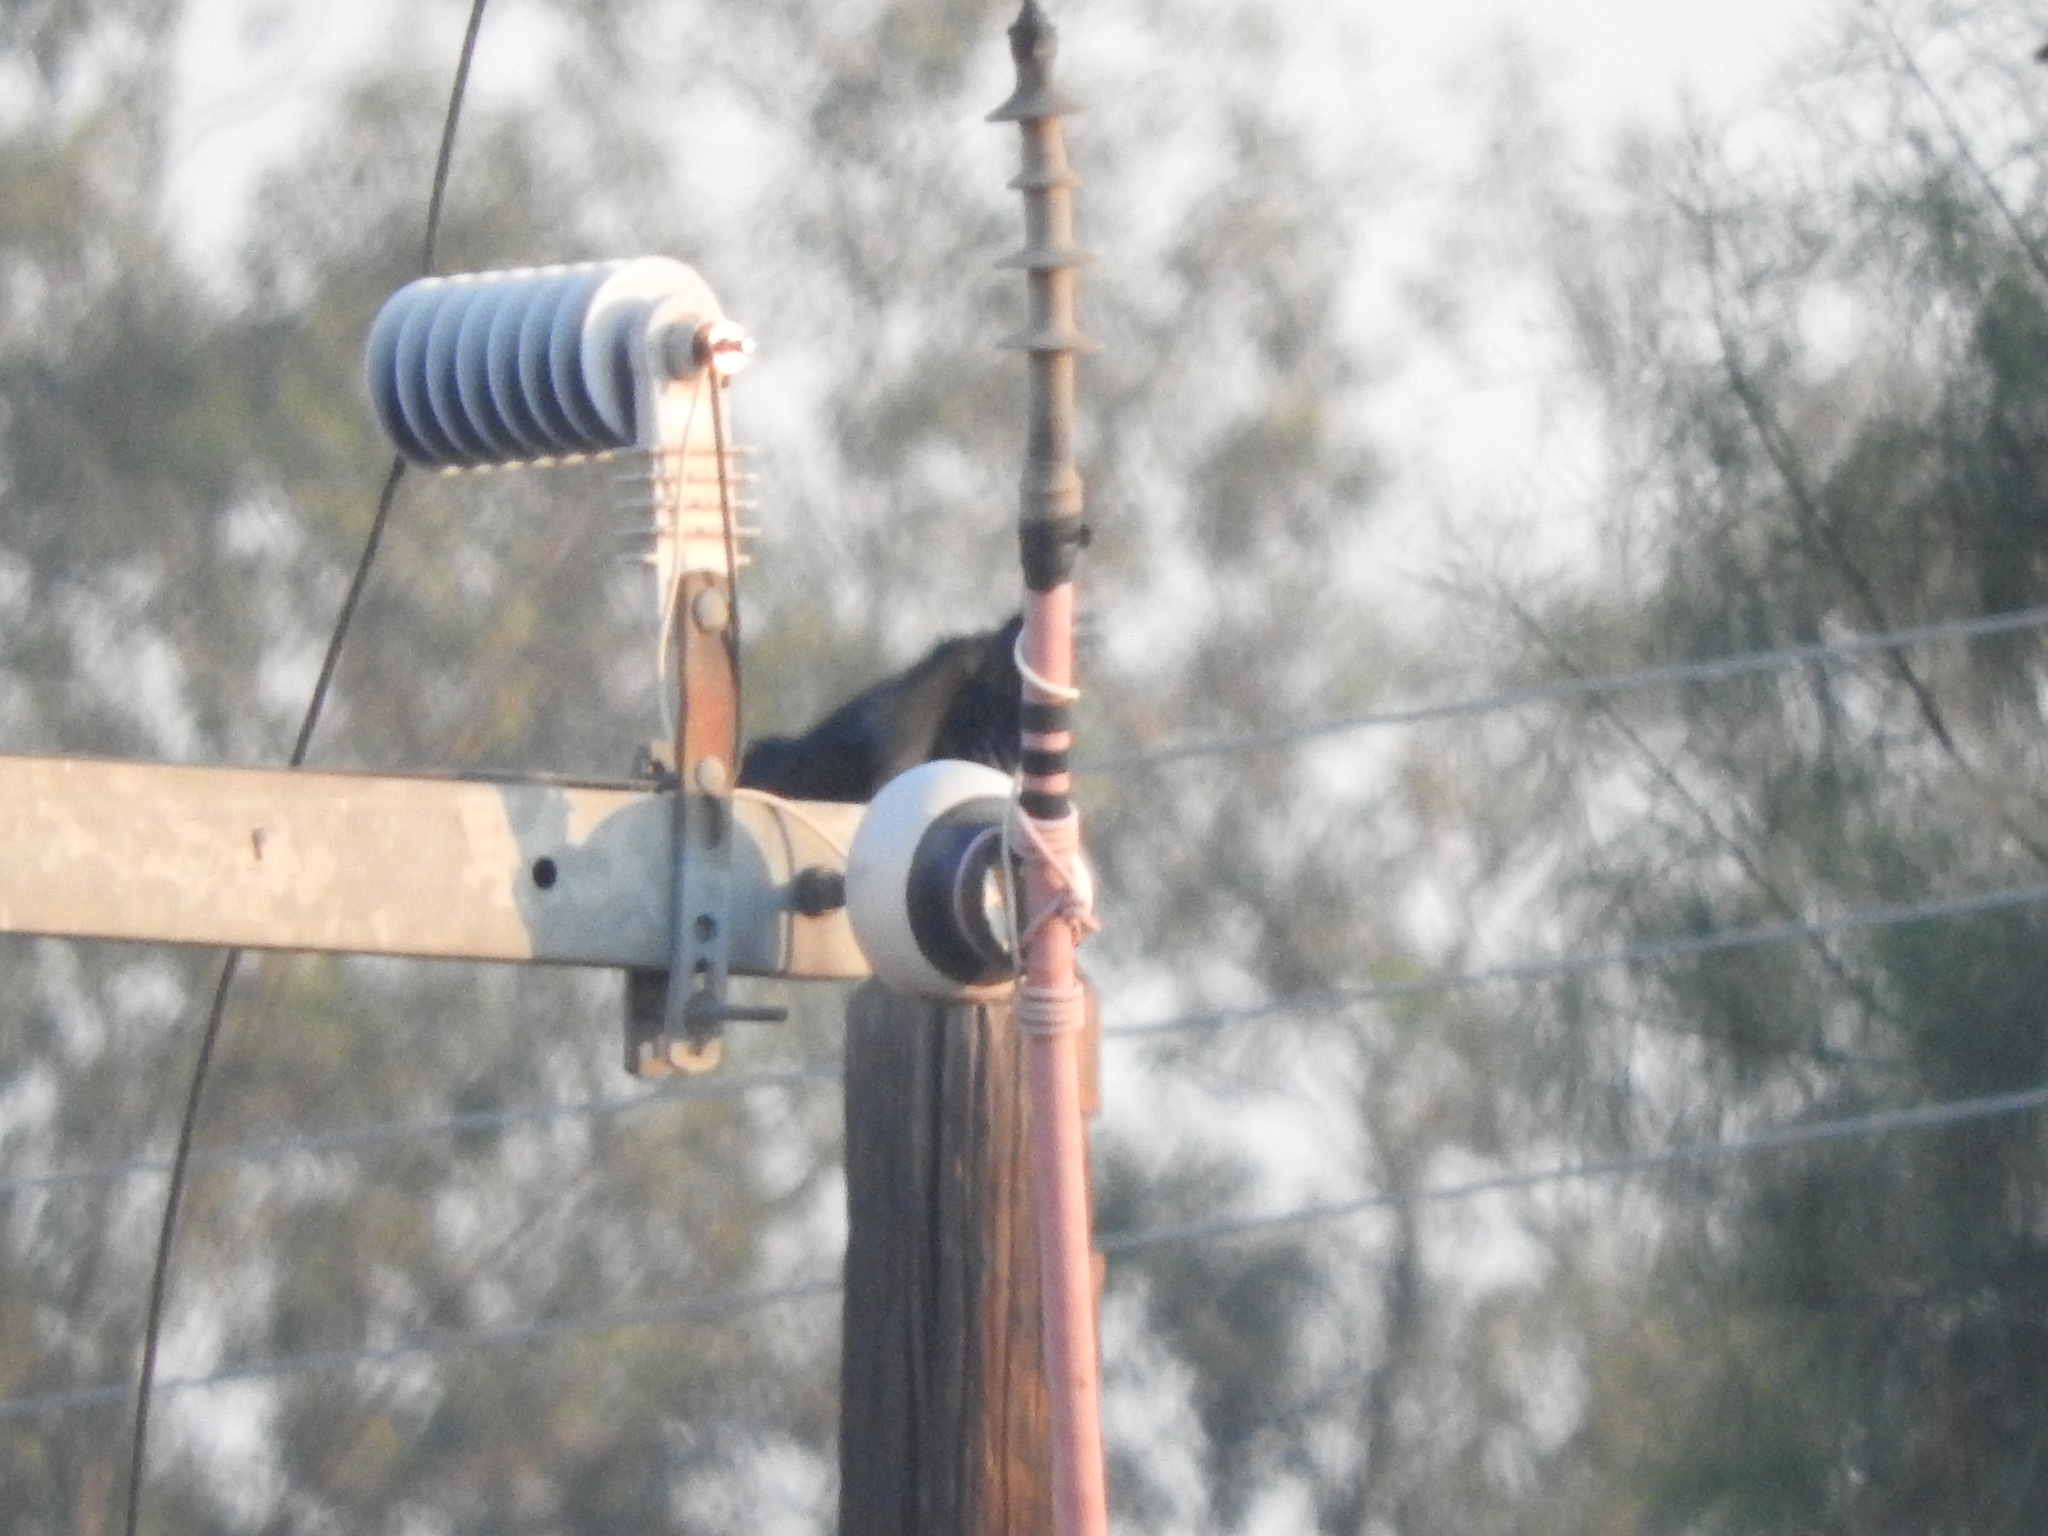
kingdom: Animalia
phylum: Chordata
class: Aves
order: Passeriformes
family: Icteridae
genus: Quiscalus
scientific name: Quiscalus mexicanus
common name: Great-tailed grackle
